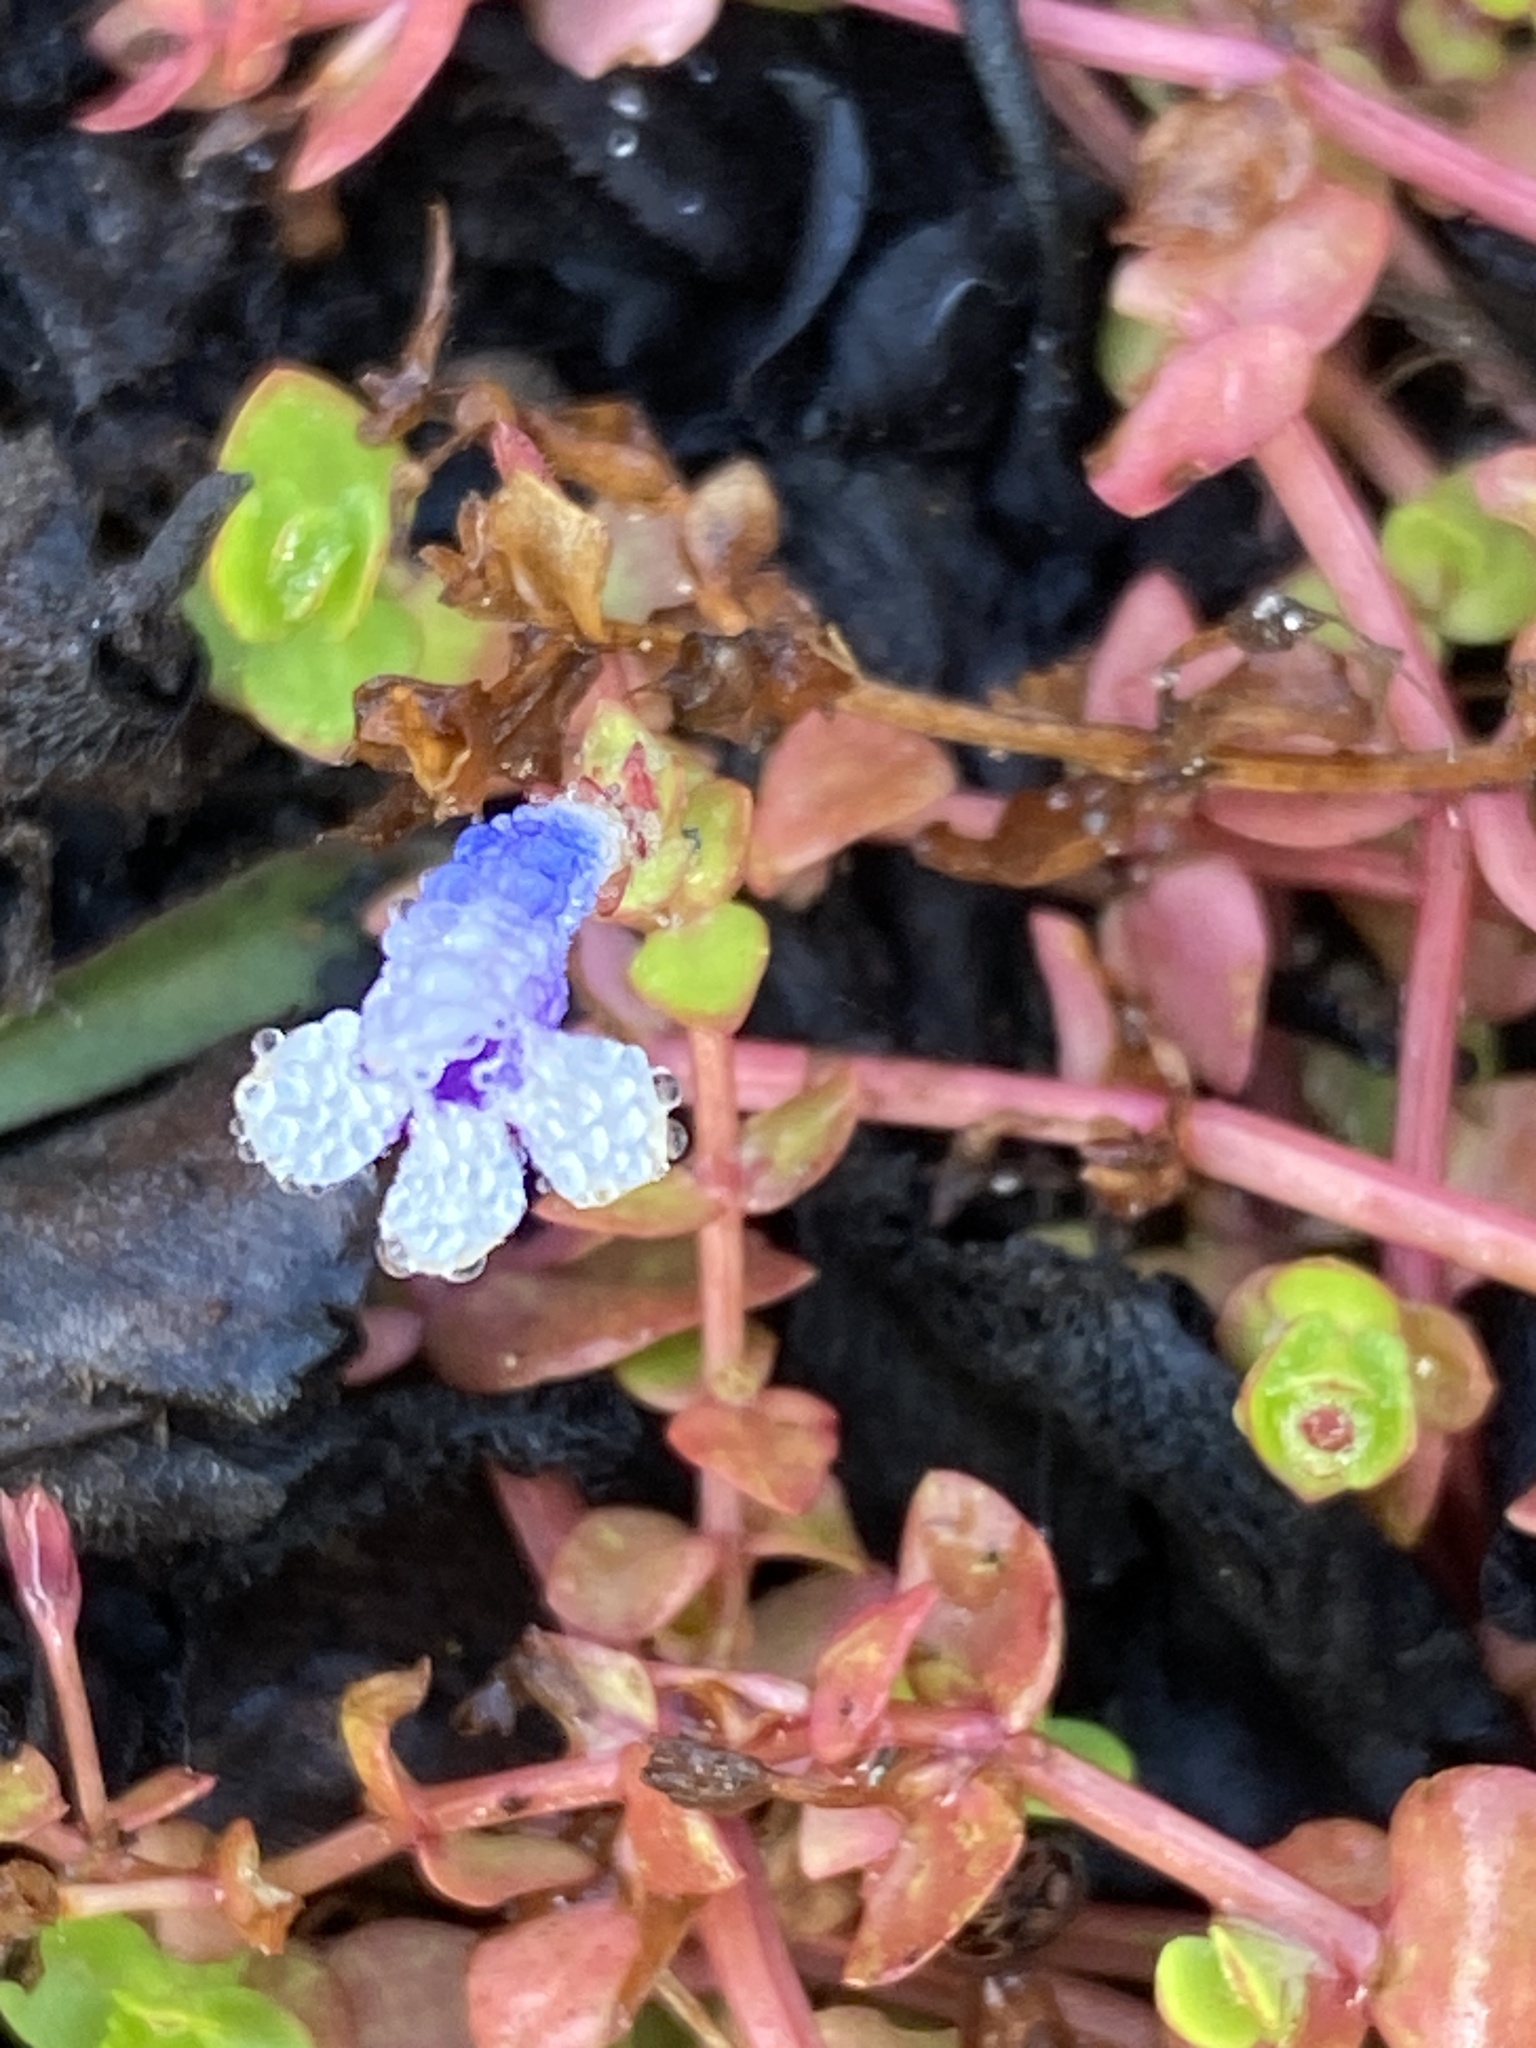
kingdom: Plantae
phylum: Tracheophyta
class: Magnoliopsida
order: Lamiales
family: Linderniaceae
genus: Lindernia
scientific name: Lindernia rotundifolia
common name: Baby’s tears
